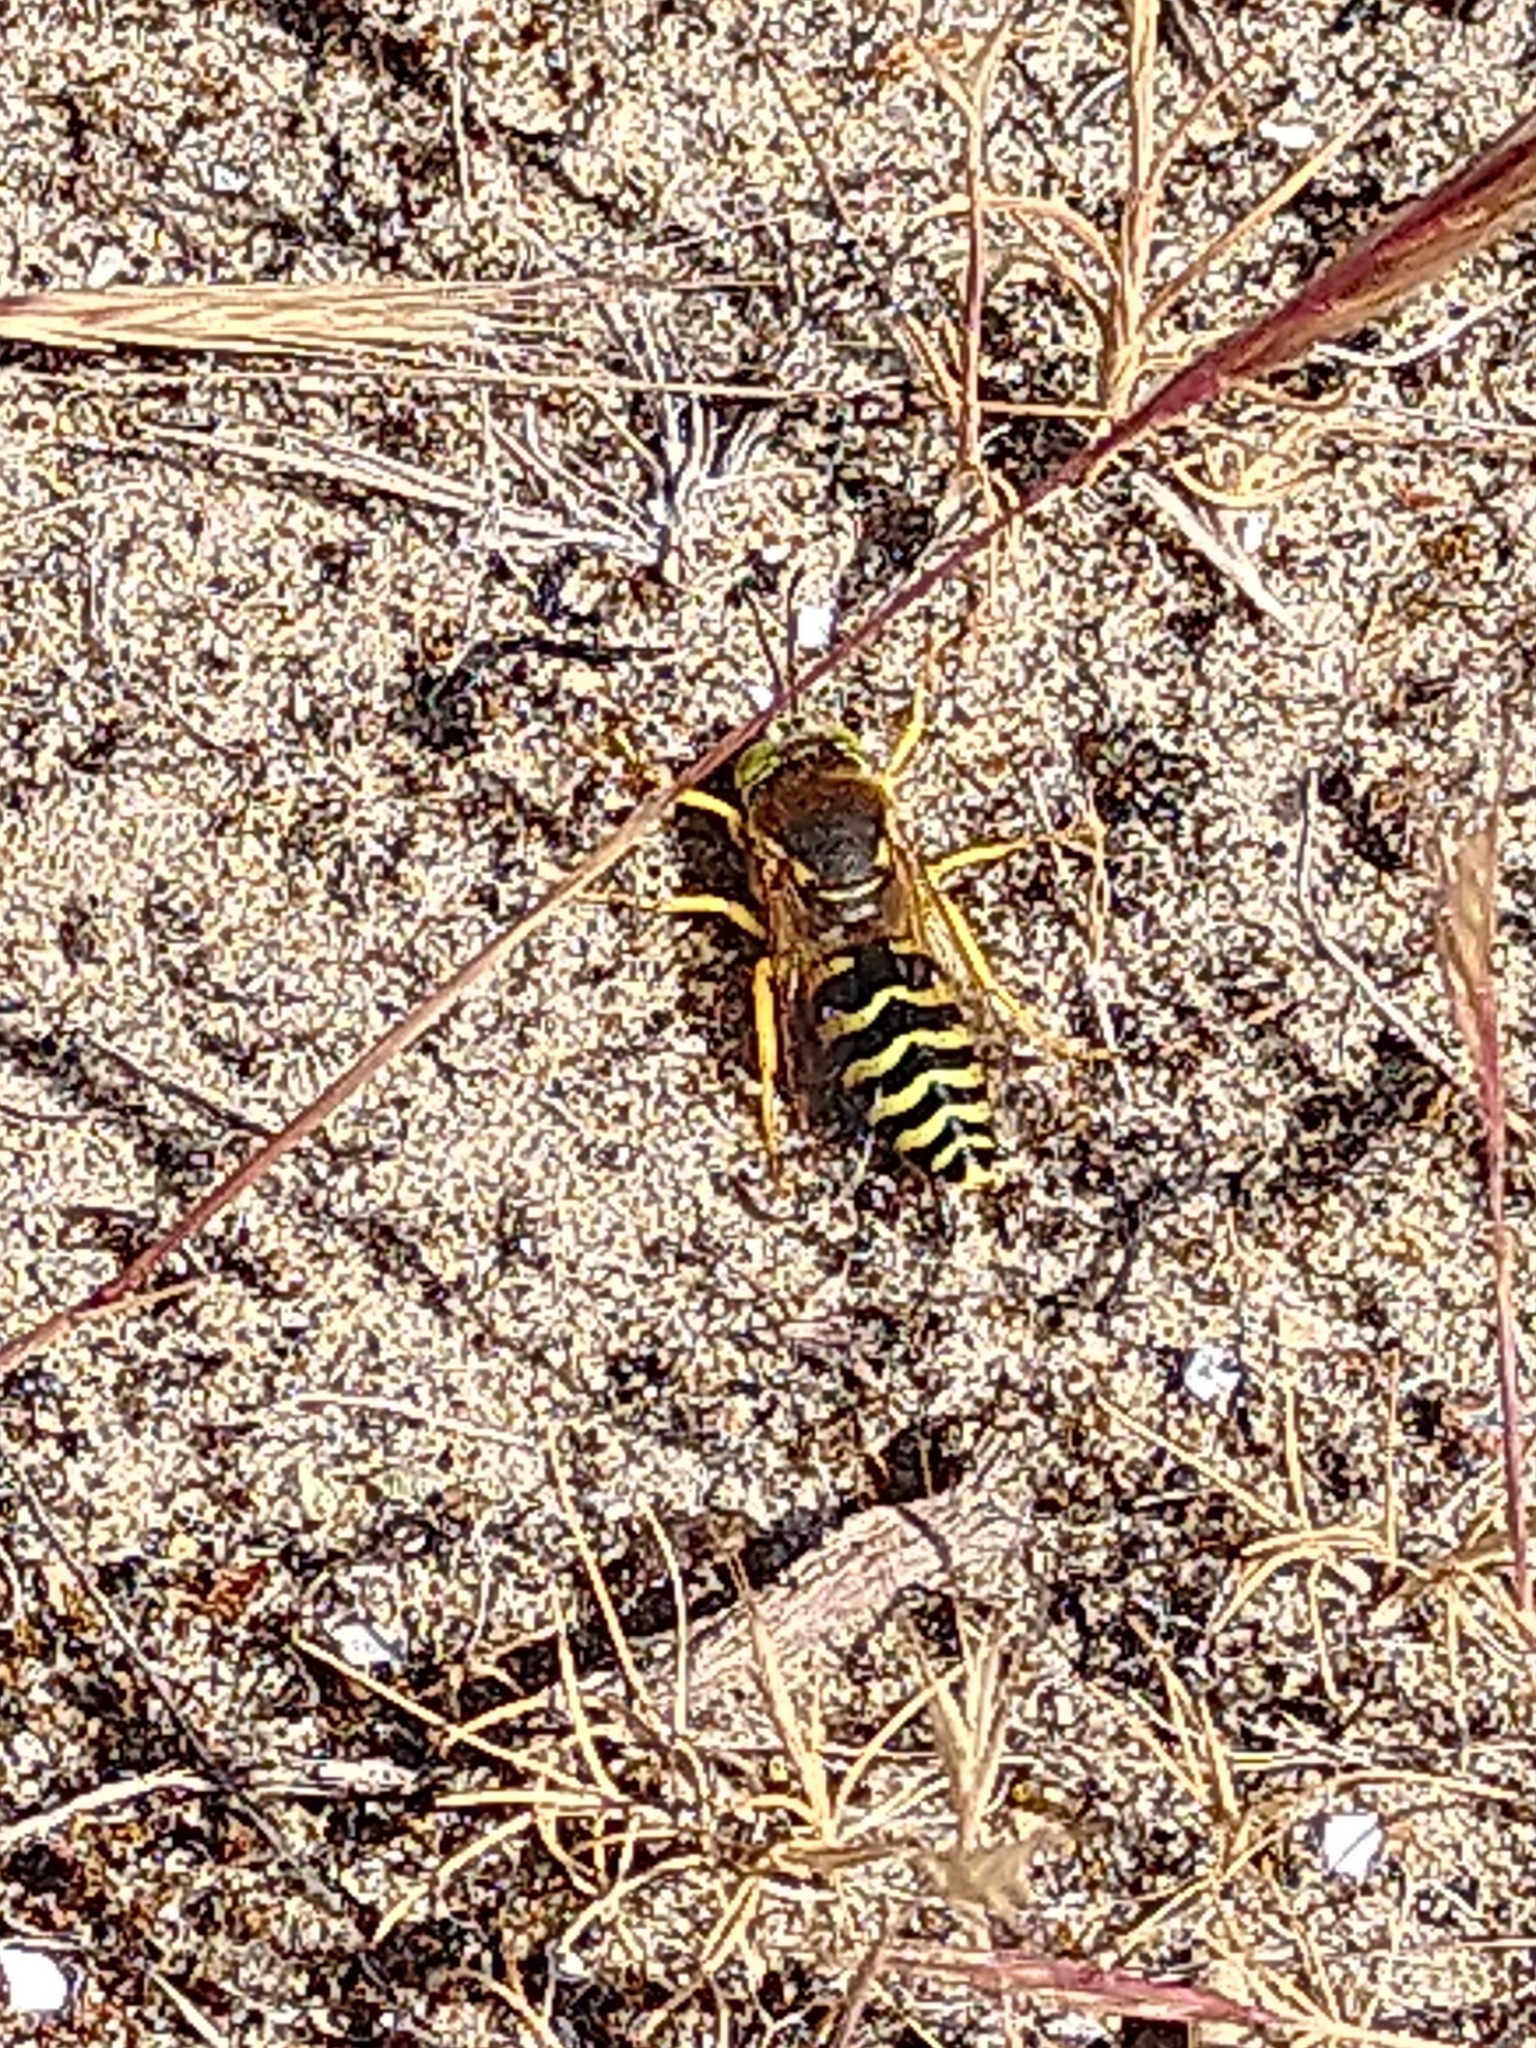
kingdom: Animalia
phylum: Arthropoda
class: Insecta
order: Hymenoptera
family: Crabronidae
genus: Bembix
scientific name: Bembix rostrata
